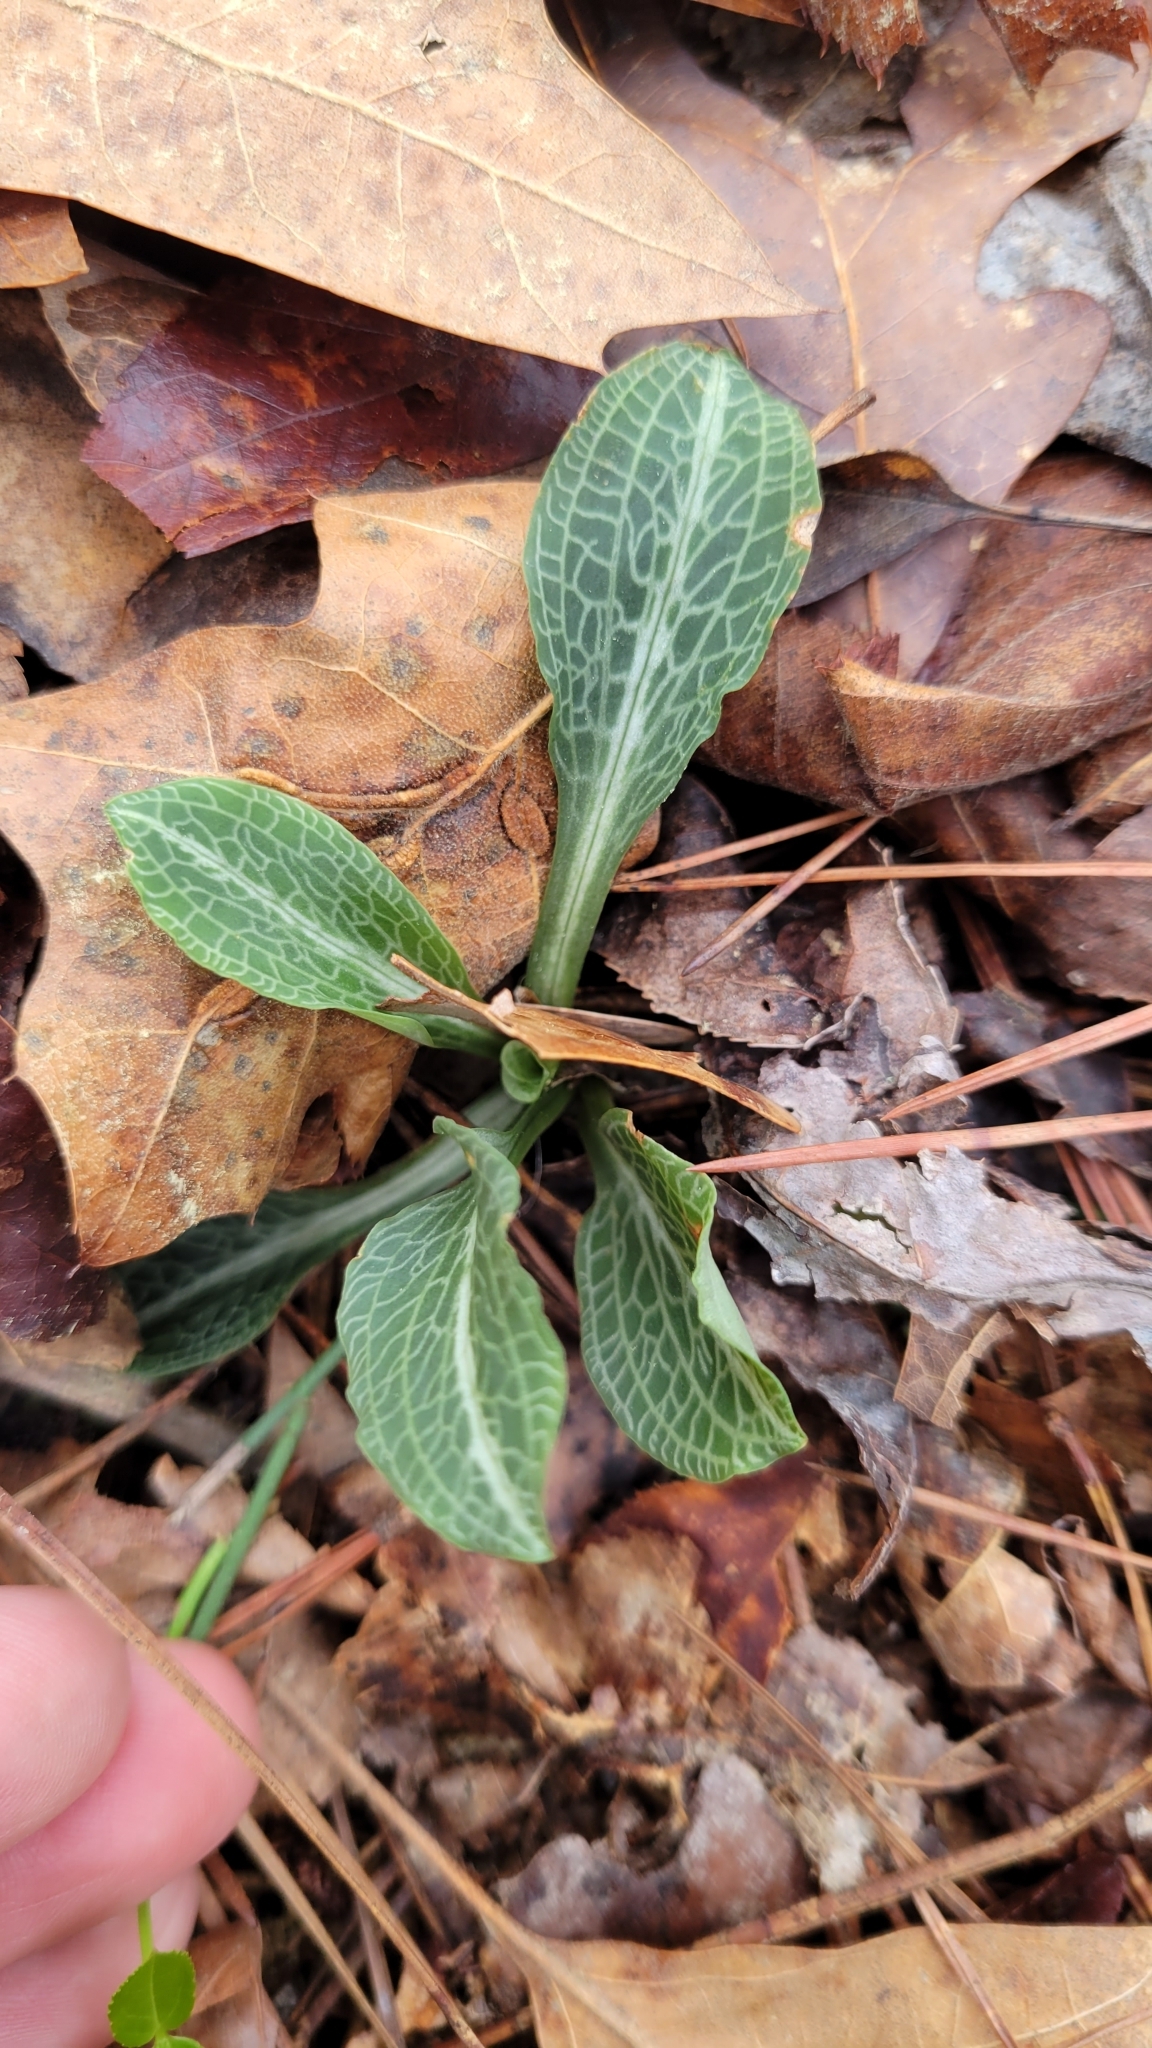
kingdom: Plantae
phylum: Tracheophyta
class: Liliopsida
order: Asparagales
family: Orchidaceae
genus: Goodyera
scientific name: Goodyera pubescens
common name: Downy rattlesnake-plantain
